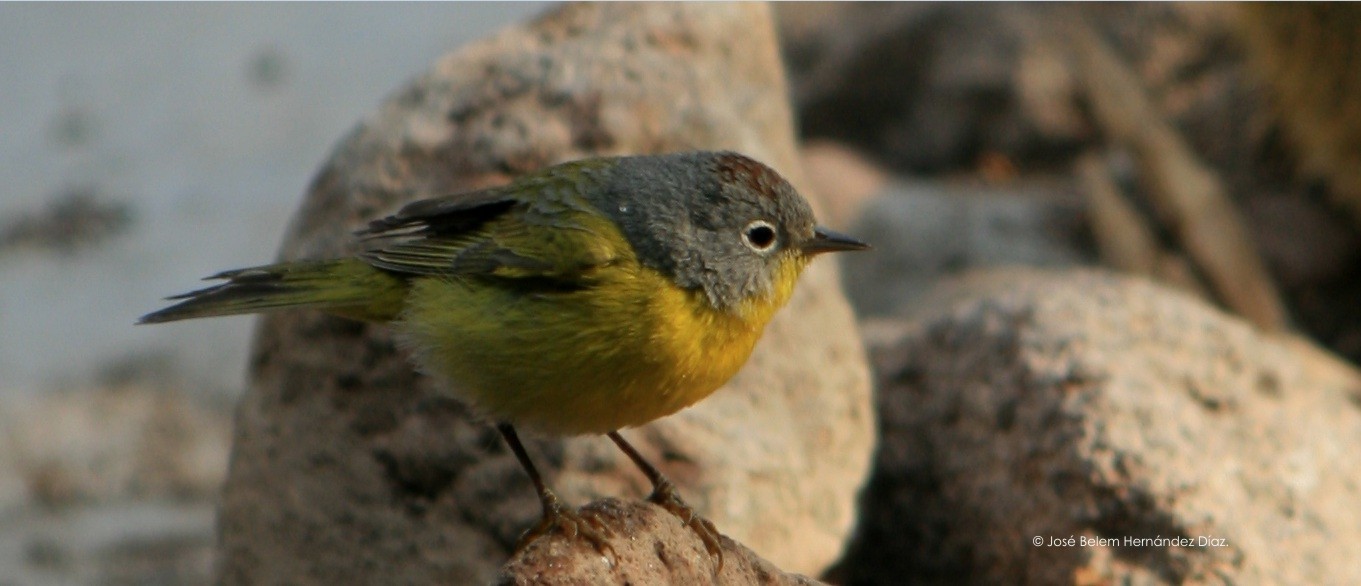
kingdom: Animalia
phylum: Chordata
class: Aves
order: Passeriformes
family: Parulidae
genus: Leiothlypis
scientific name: Leiothlypis ruficapilla
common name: Nashville warbler
